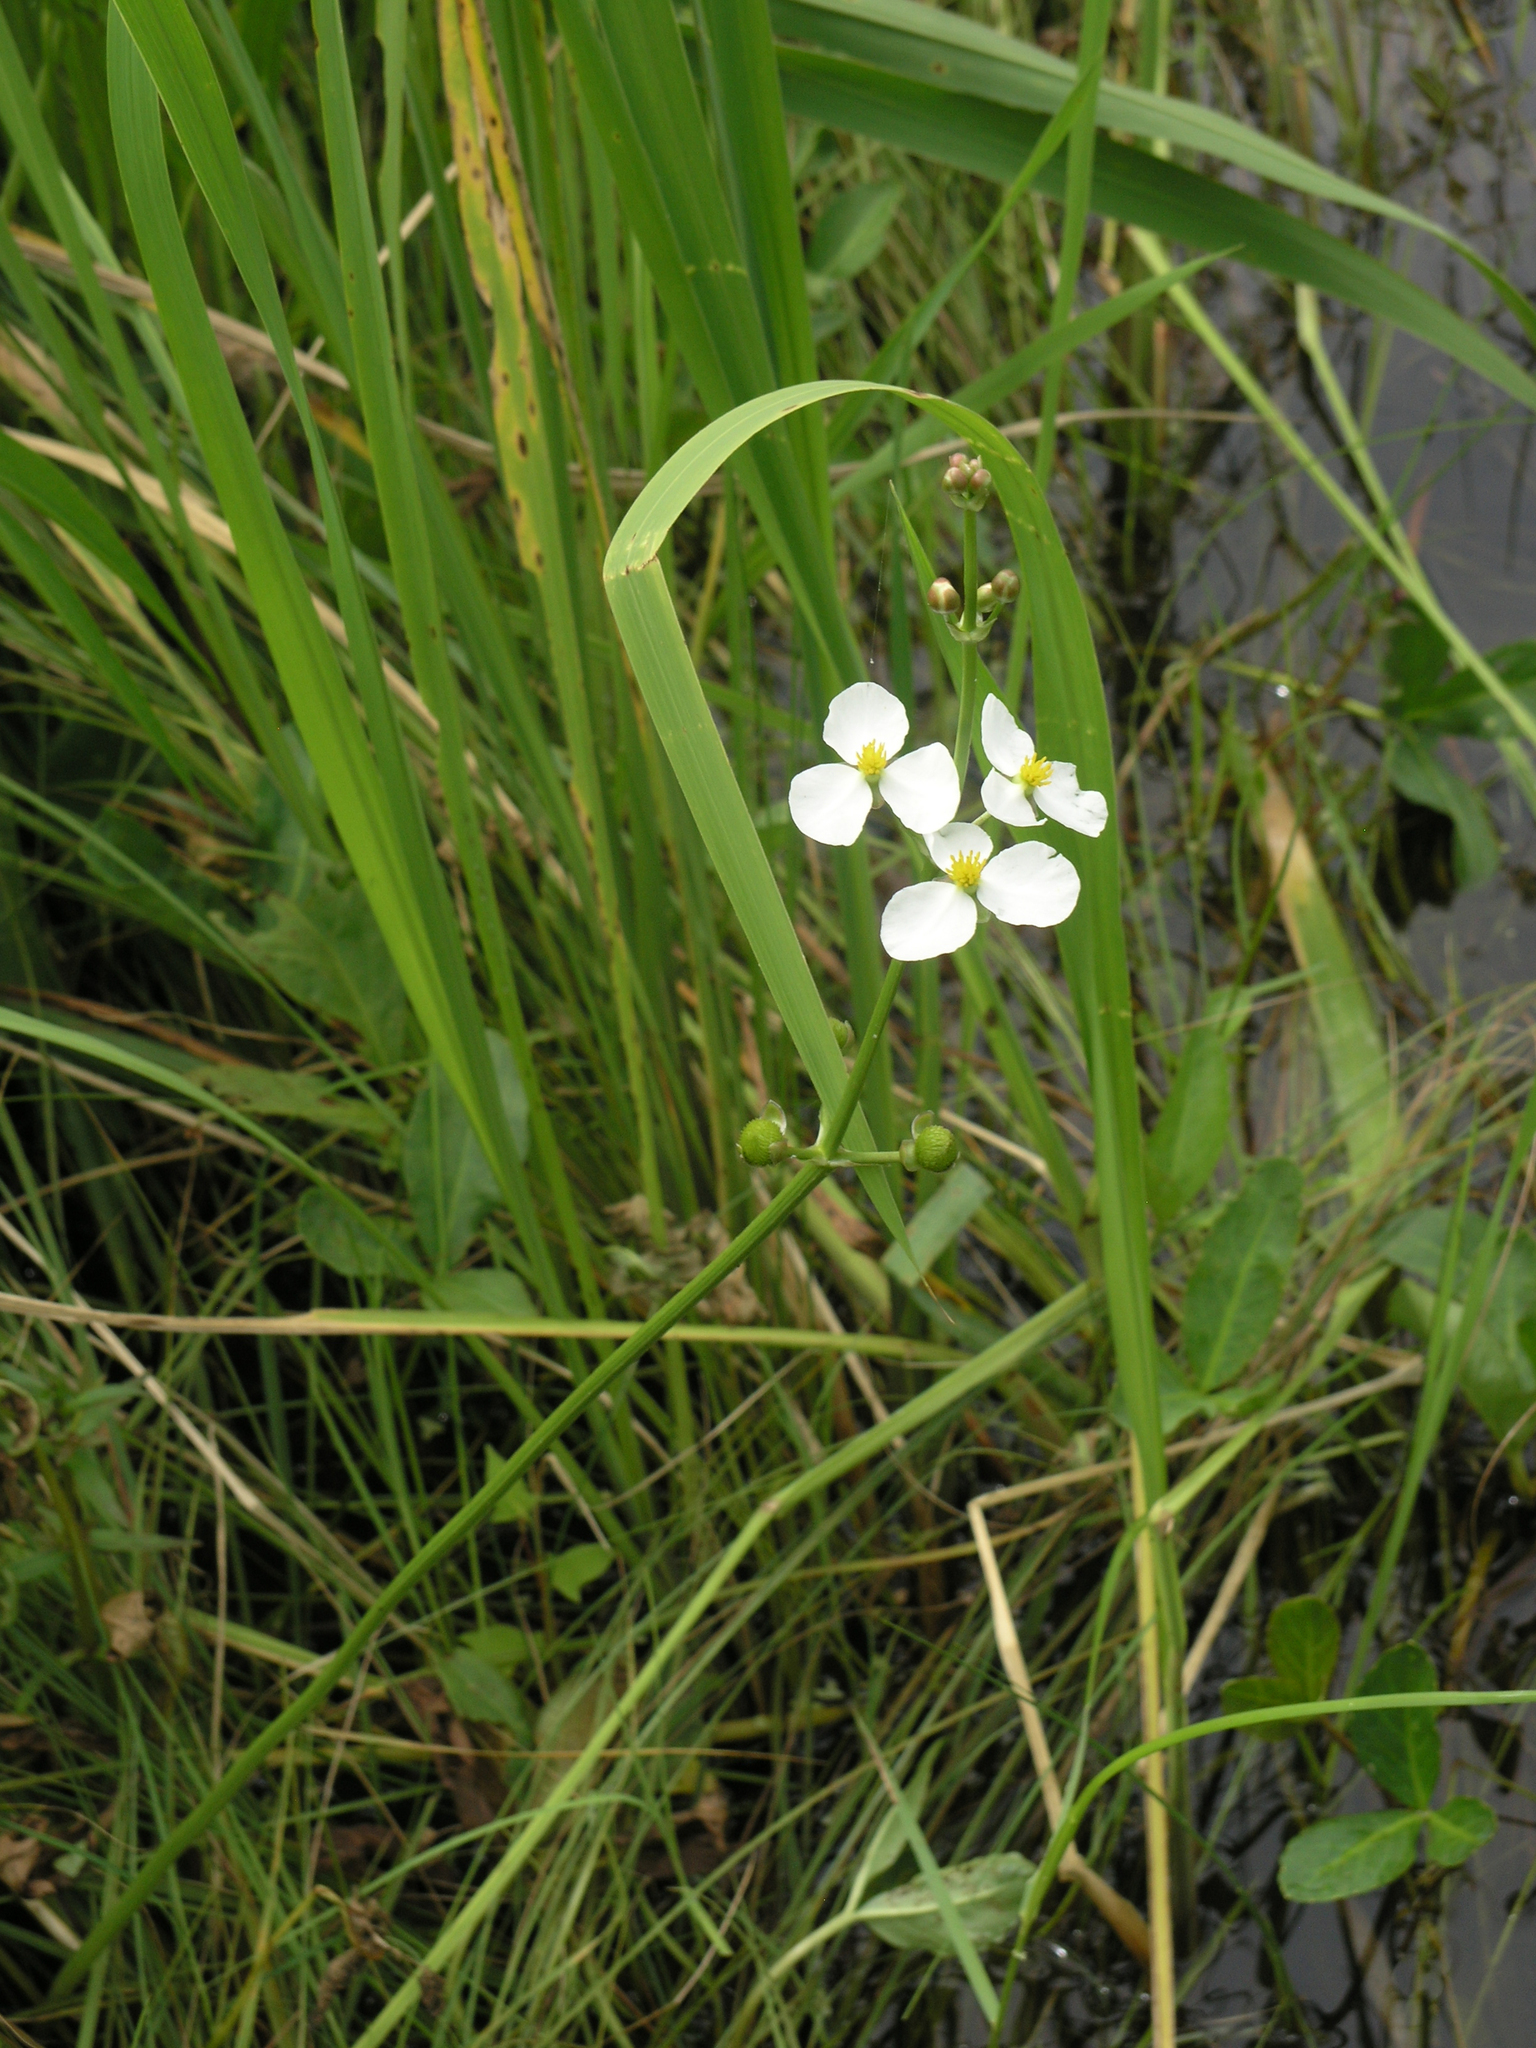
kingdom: Plantae
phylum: Tracheophyta
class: Liliopsida
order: Alismatales
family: Alismataceae
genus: Sagittaria
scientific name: Sagittaria trifolia
